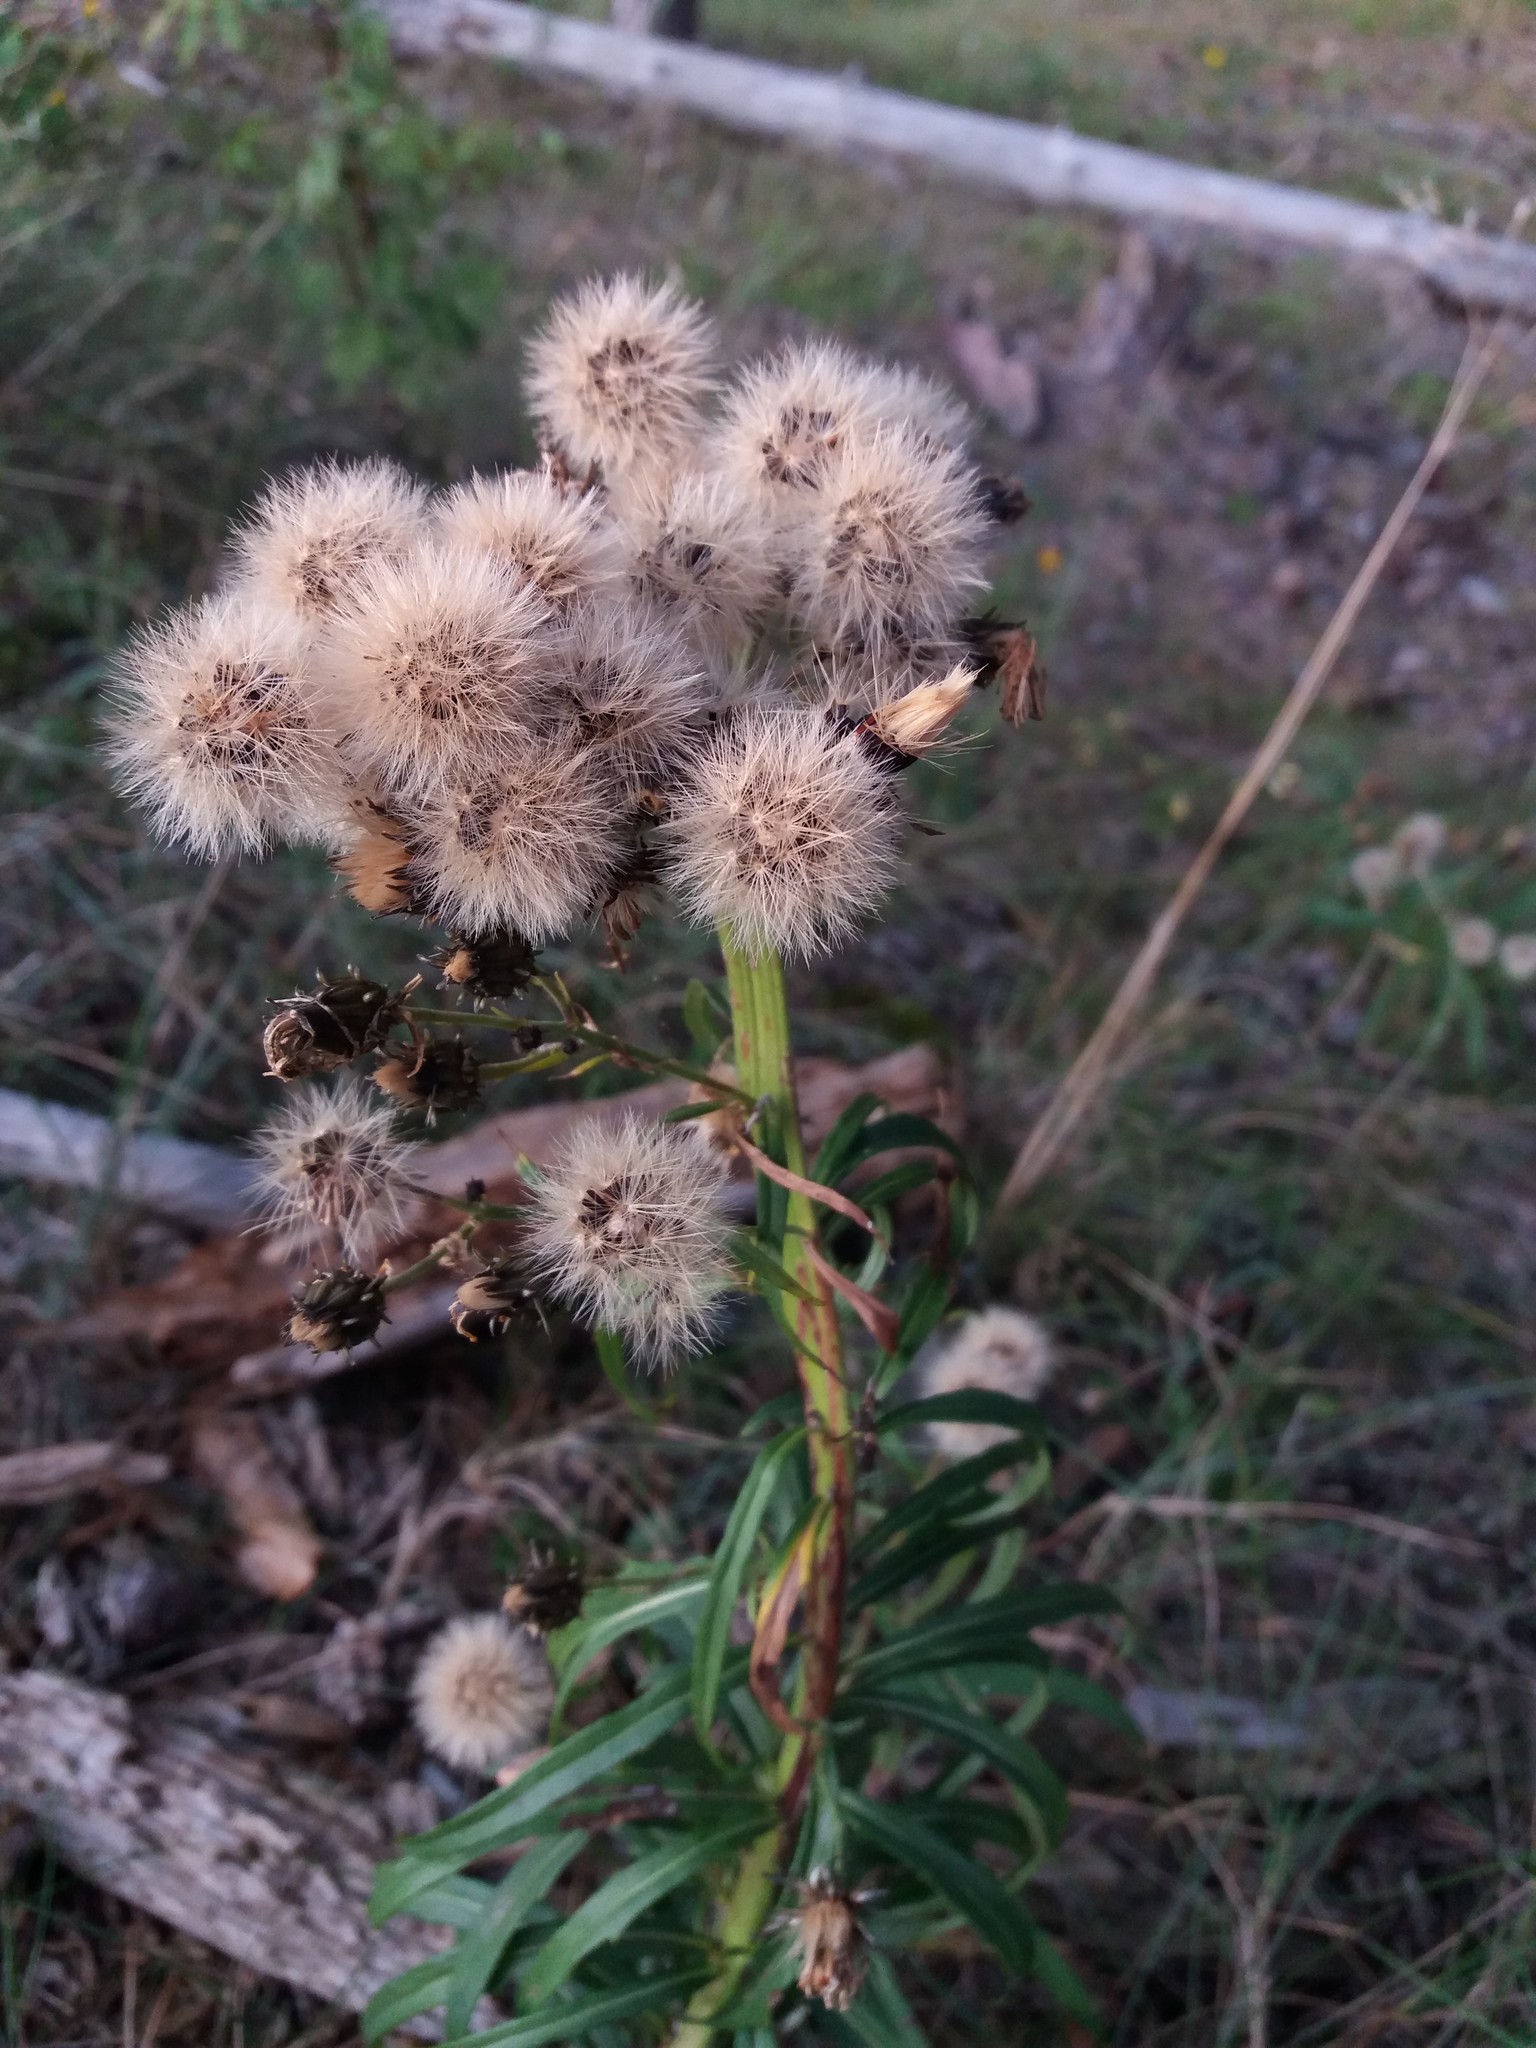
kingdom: Plantae
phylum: Tracheophyta
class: Magnoliopsida
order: Asterales
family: Asteraceae
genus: Hieracium
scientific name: Hieracium umbellatum
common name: Northern hawkweed
